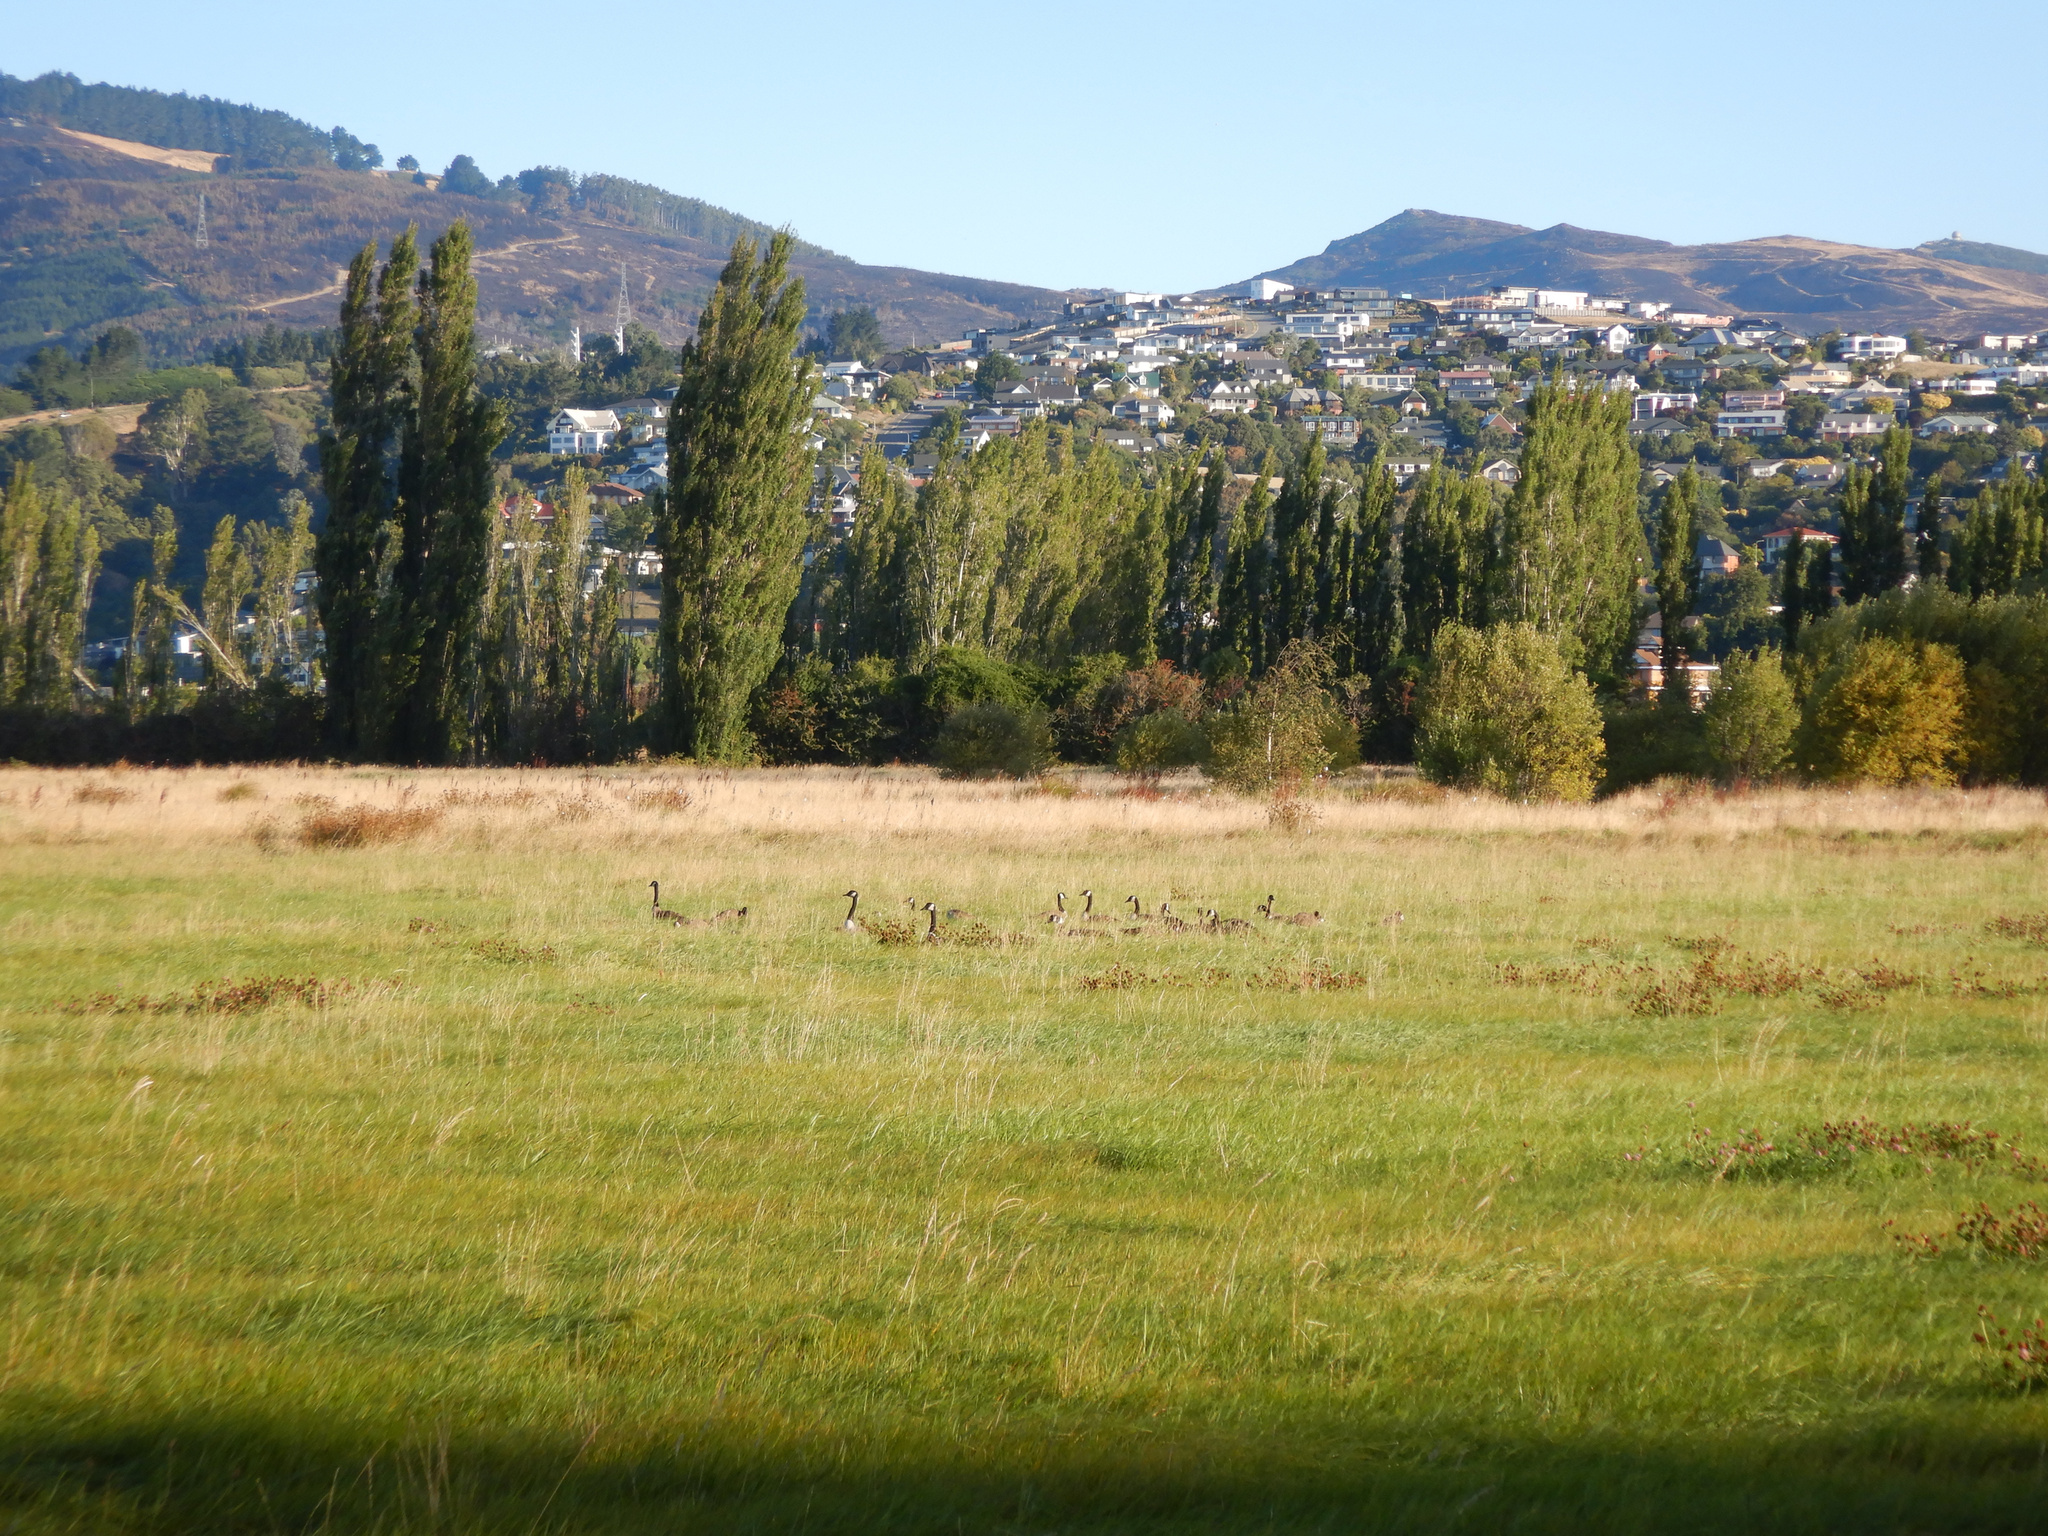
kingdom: Animalia
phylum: Chordata
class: Aves
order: Anseriformes
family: Anatidae
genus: Branta
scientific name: Branta canadensis
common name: Canada goose
